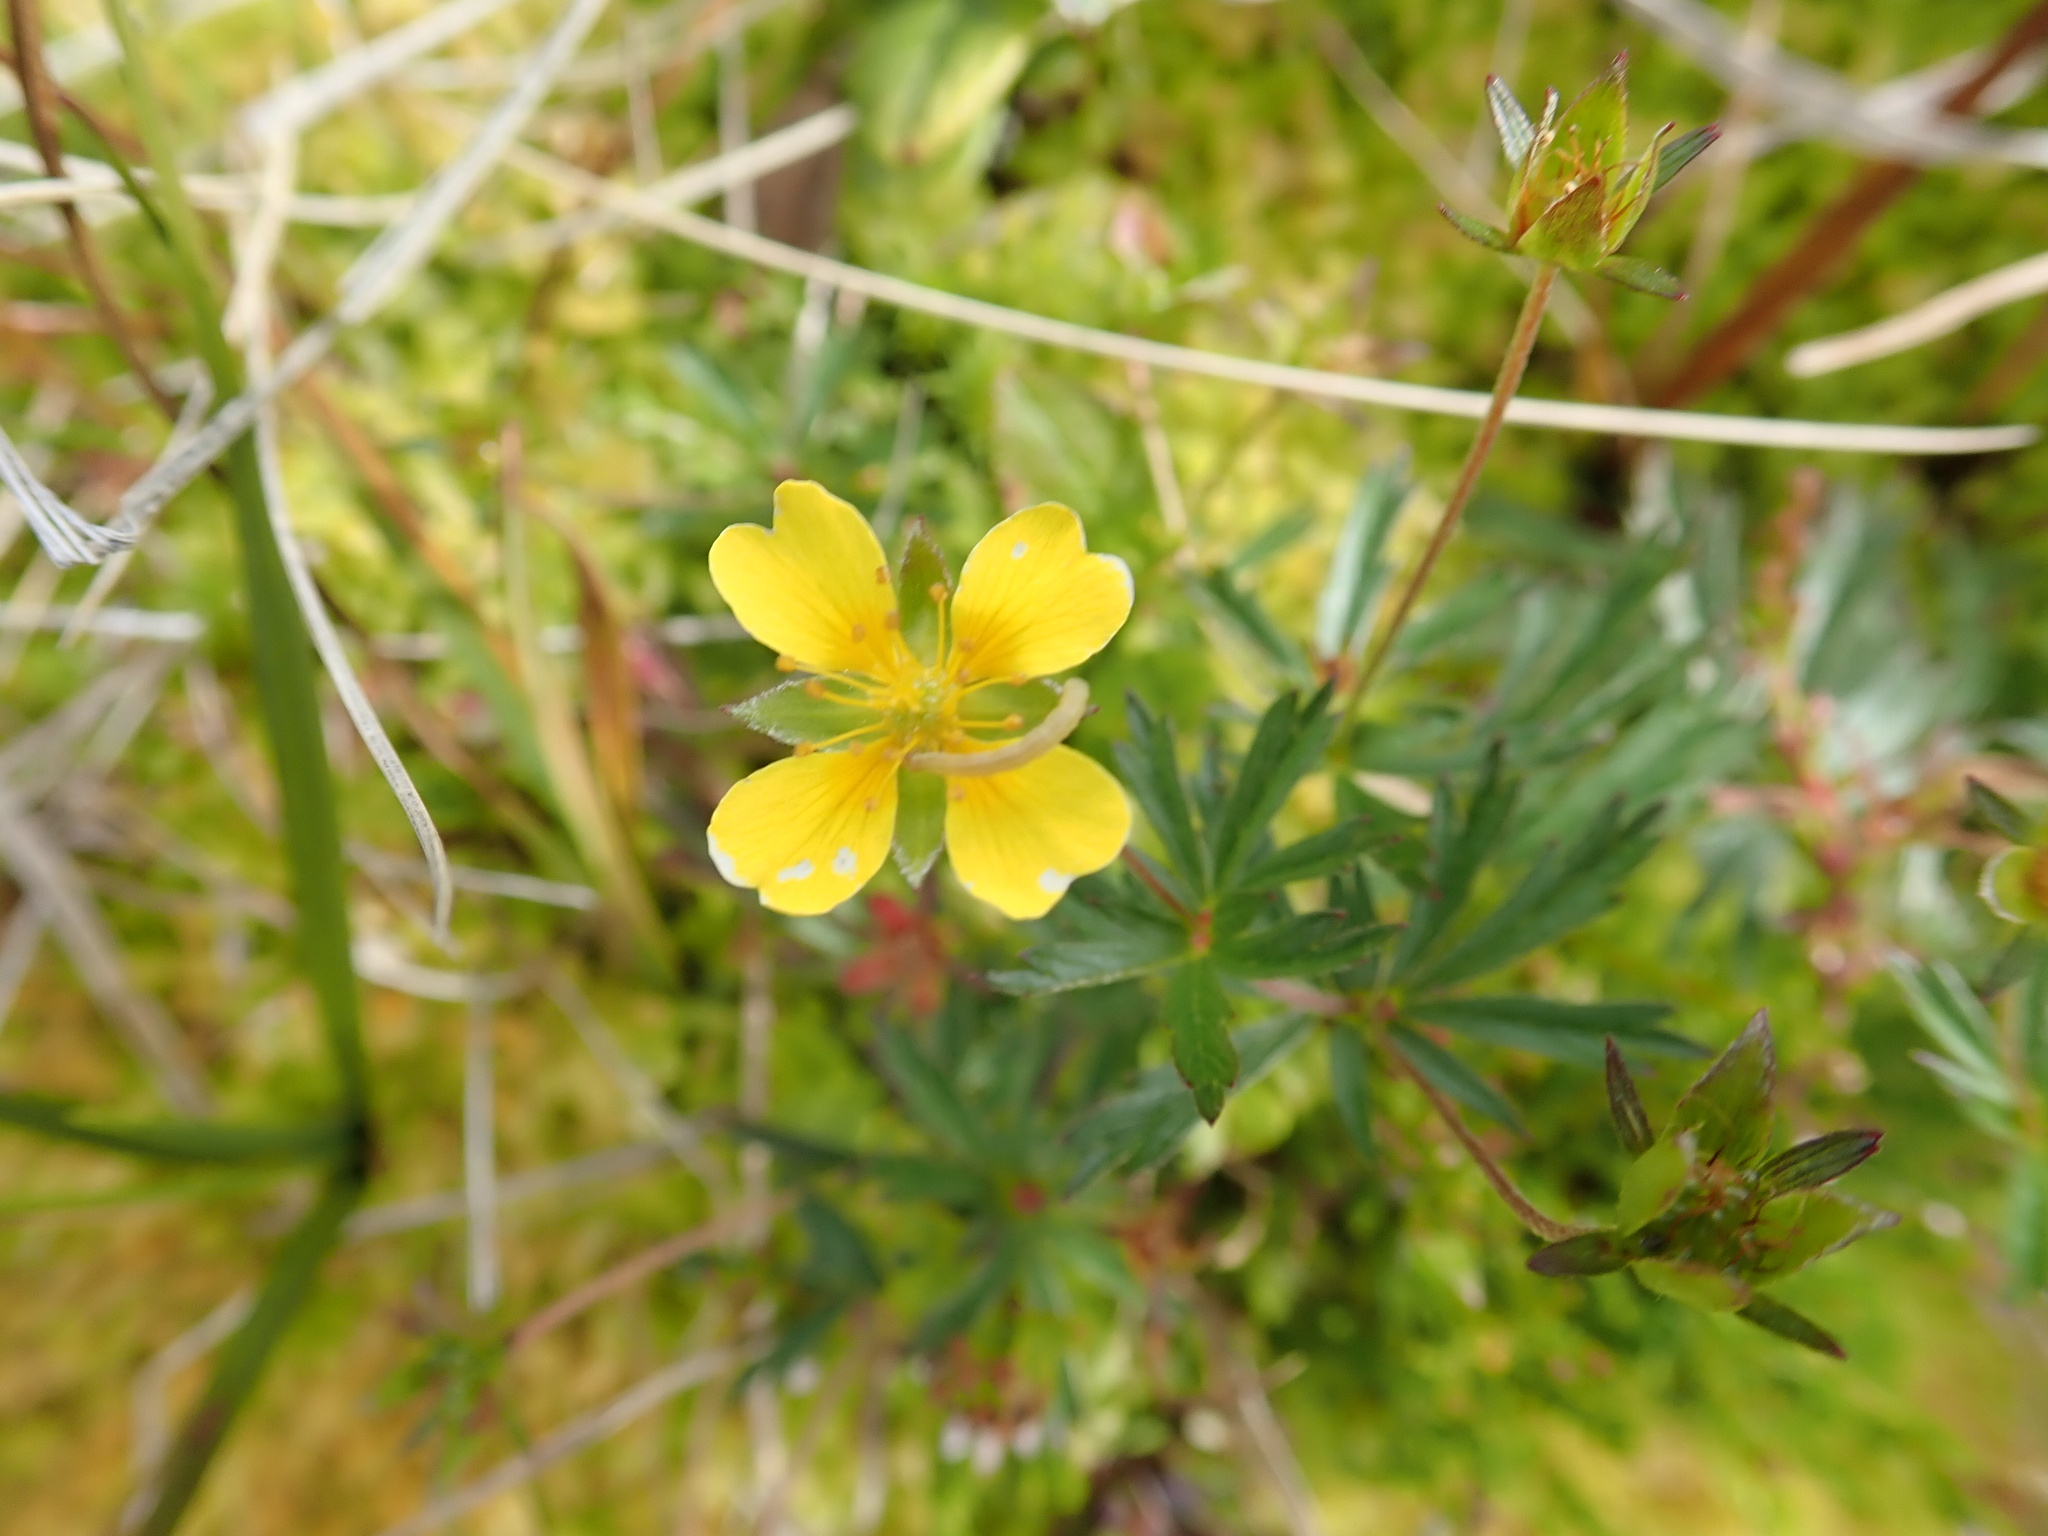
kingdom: Plantae
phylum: Tracheophyta
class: Magnoliopsida
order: Rosales
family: Rosaceae
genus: Potentilla
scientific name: Potentilla erecta
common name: Tormentil
